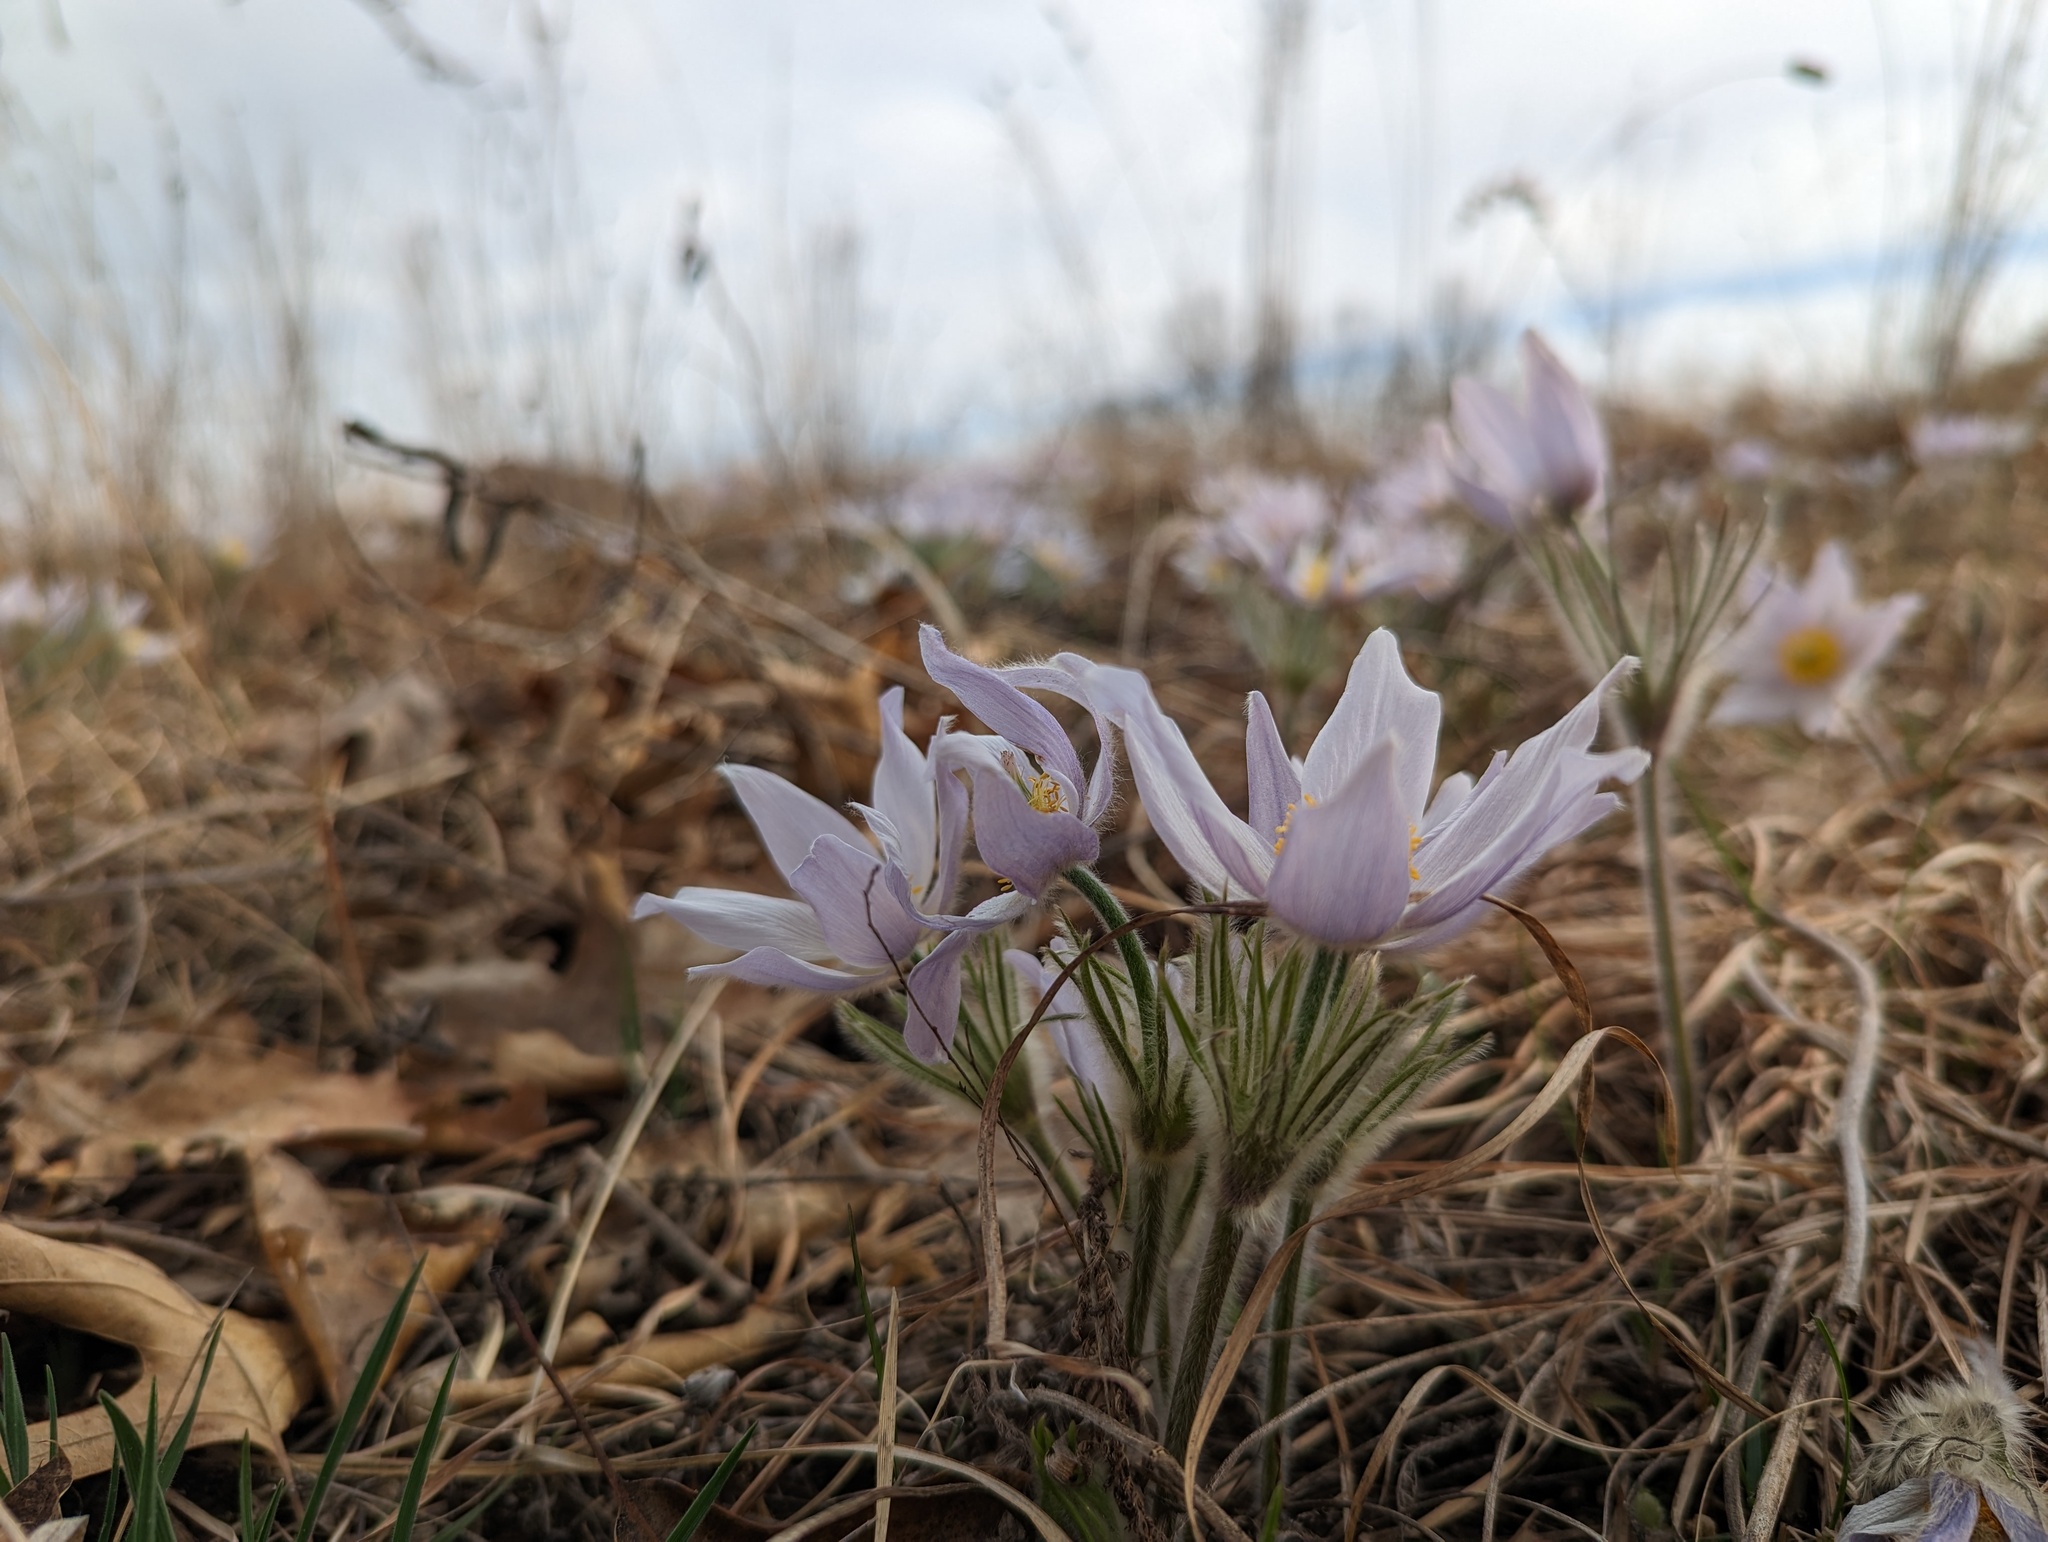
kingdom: Plantae
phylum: Tracheophyta
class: Magnoliopsida
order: Ranunculales
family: Ranunculaceae
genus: Pulsatilla
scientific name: Pulsatilla nuttalliana
